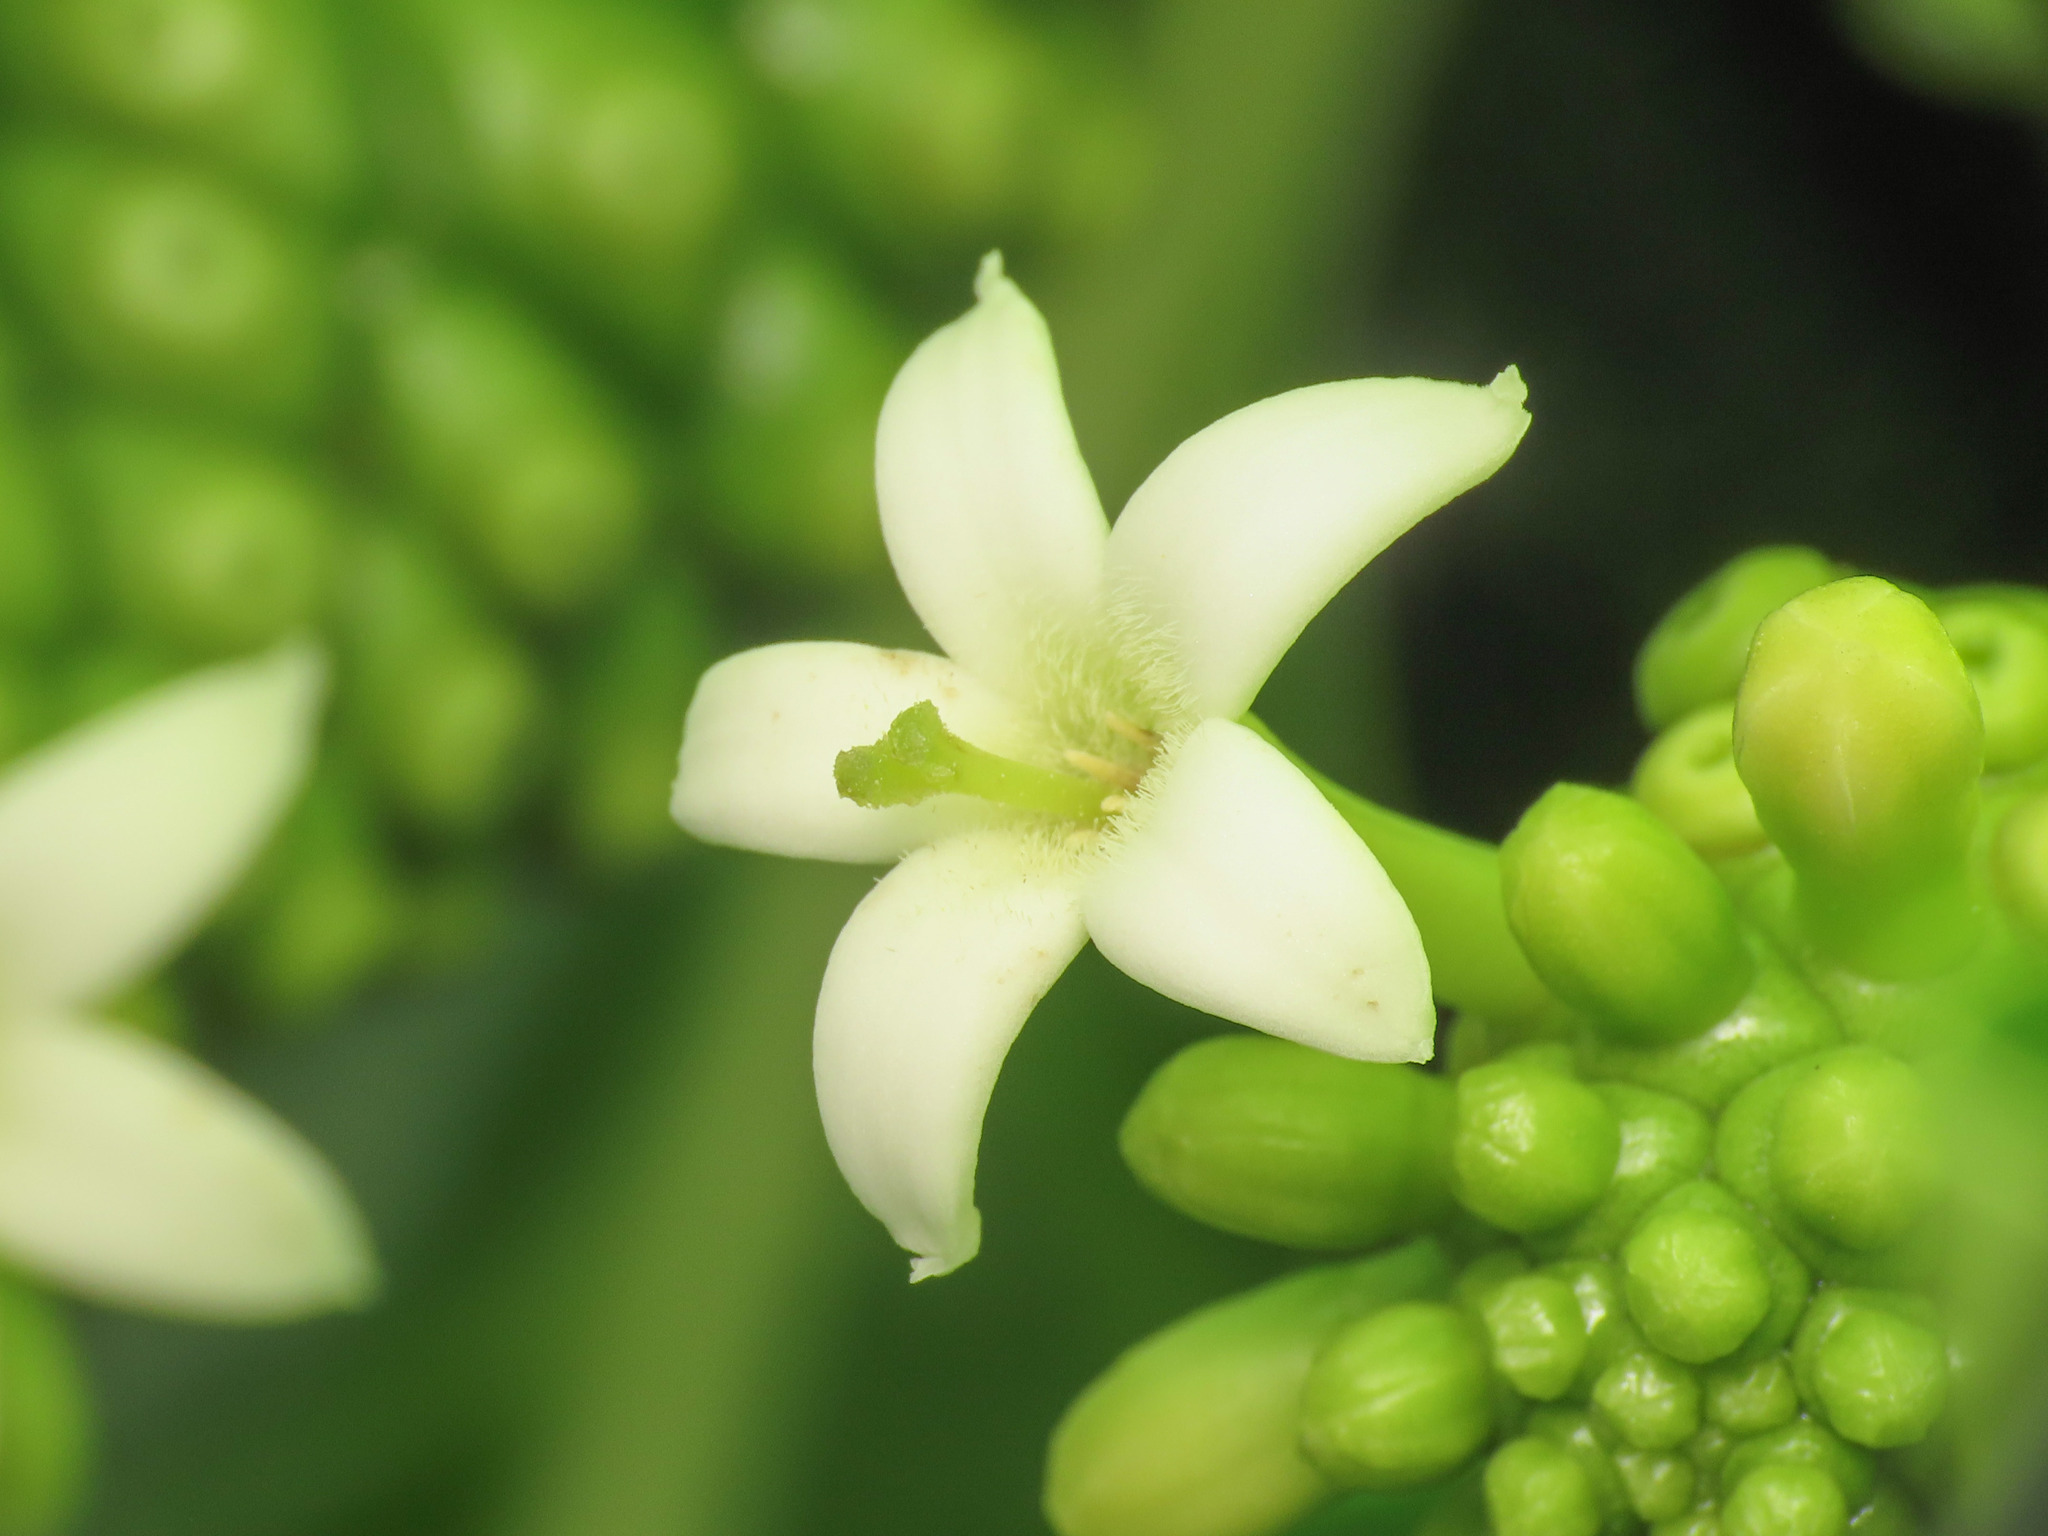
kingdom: Plantae
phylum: Tracheophyta
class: Magnoliopsida
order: Gentianales
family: Rubiaceae
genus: Morinda
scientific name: Morinda citrifolia
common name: Indian-mulberry
